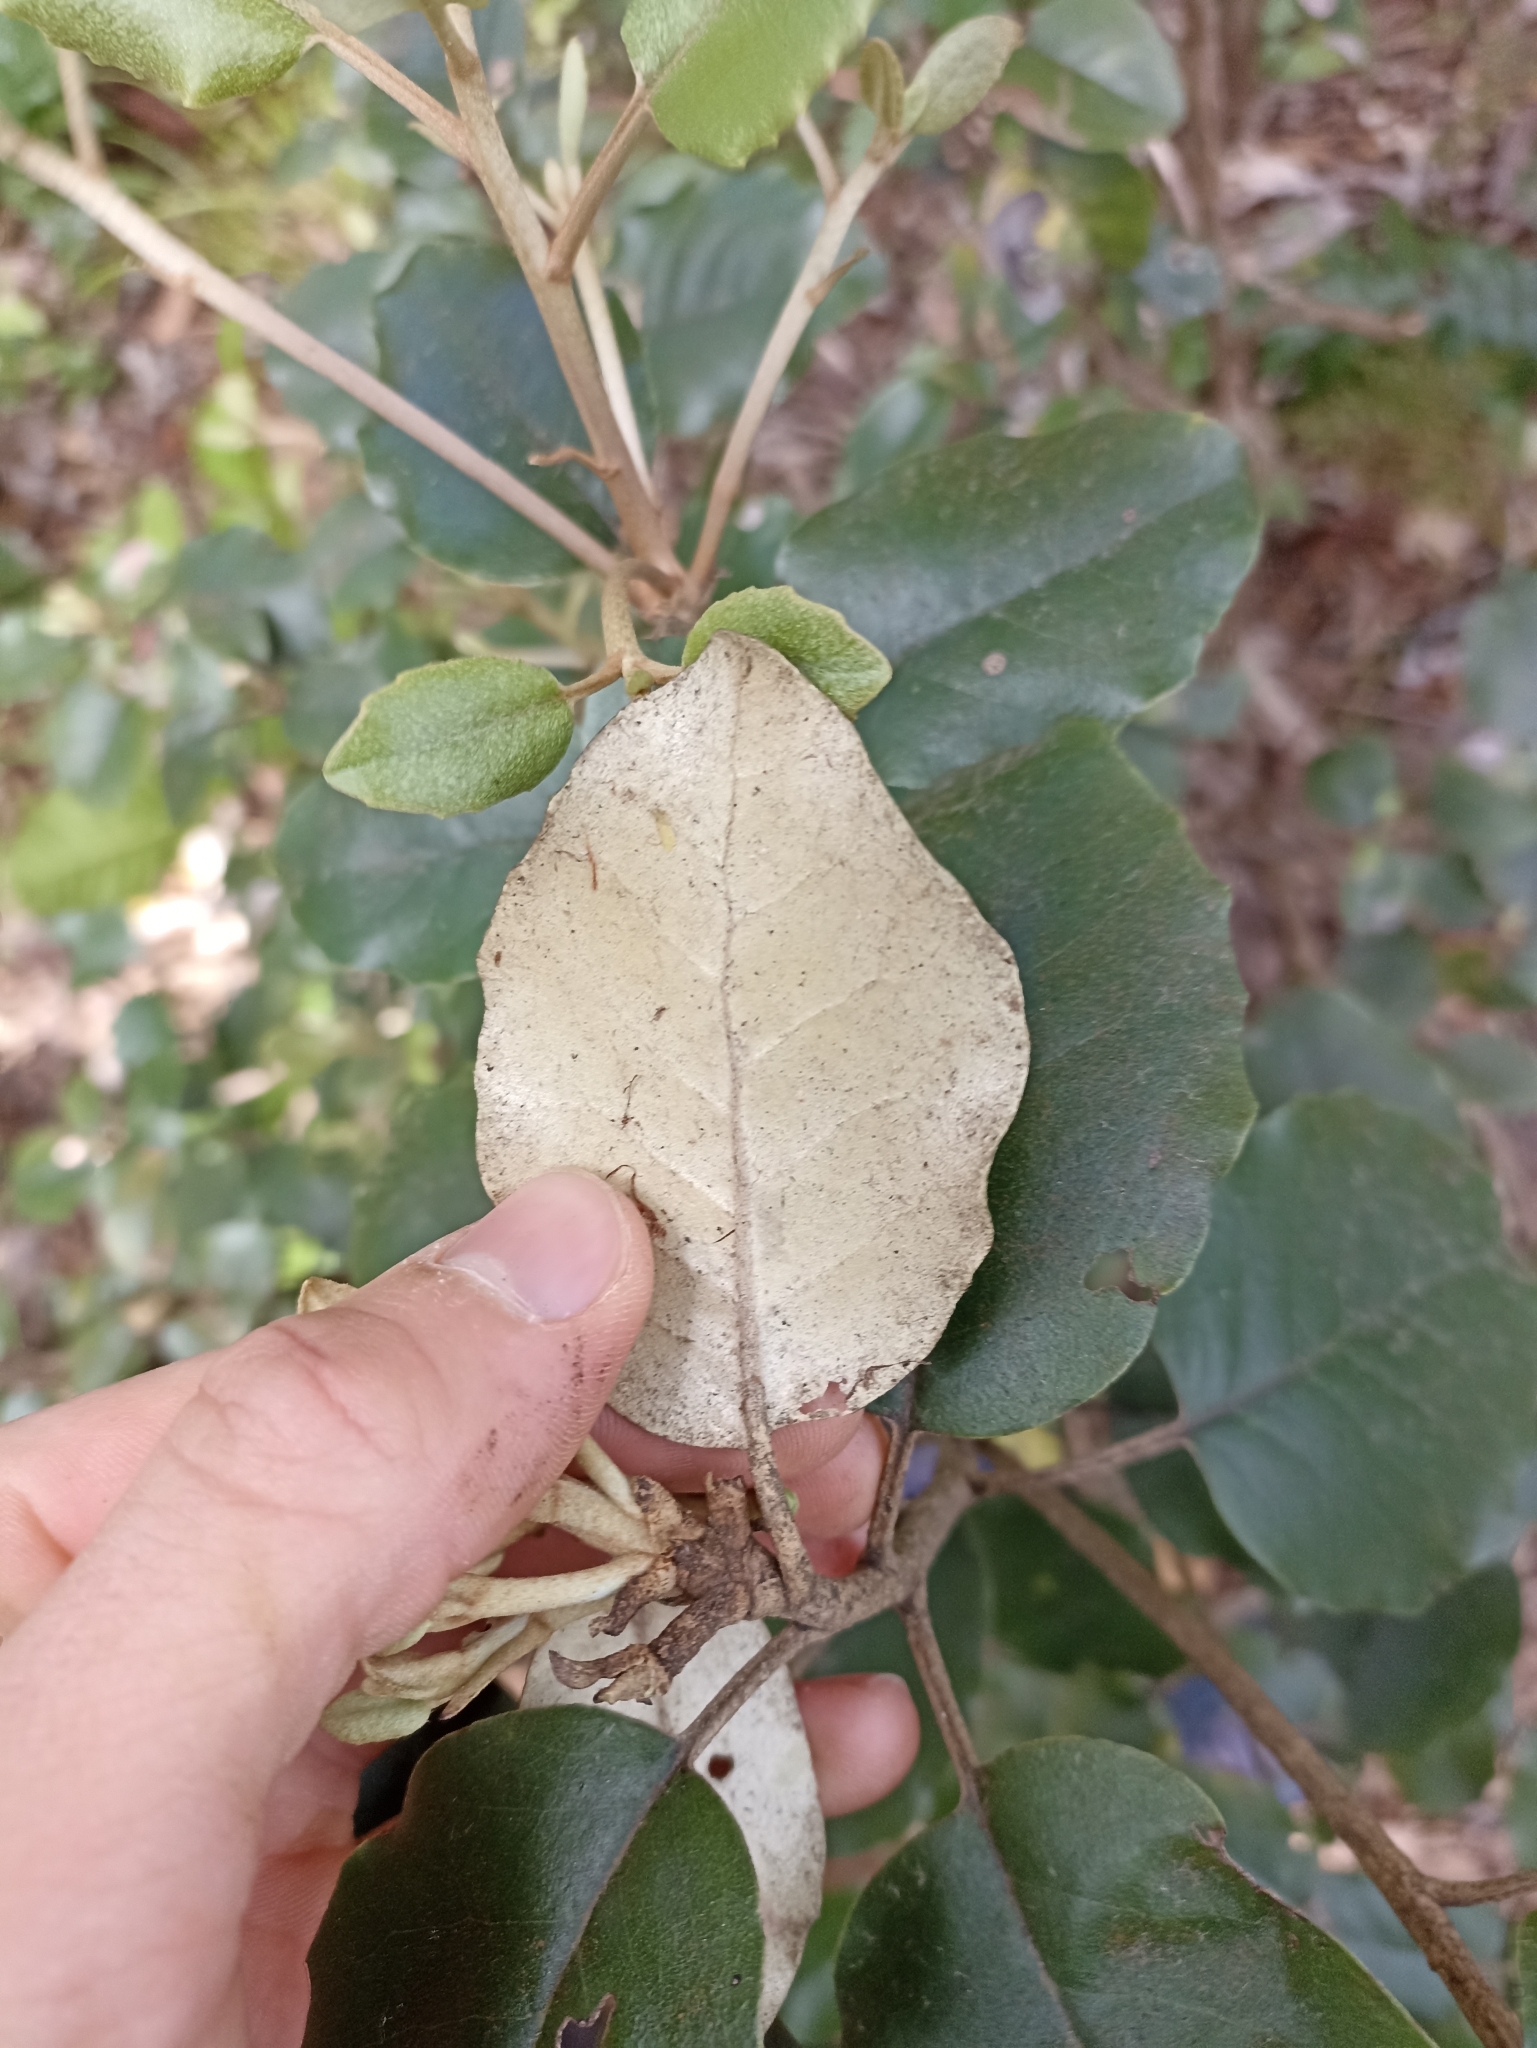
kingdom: Plantae
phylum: Tracheophyta
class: Magnoliopsida
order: Asterales
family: Asteraceae
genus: Olearia
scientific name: Olearia furfuracea
